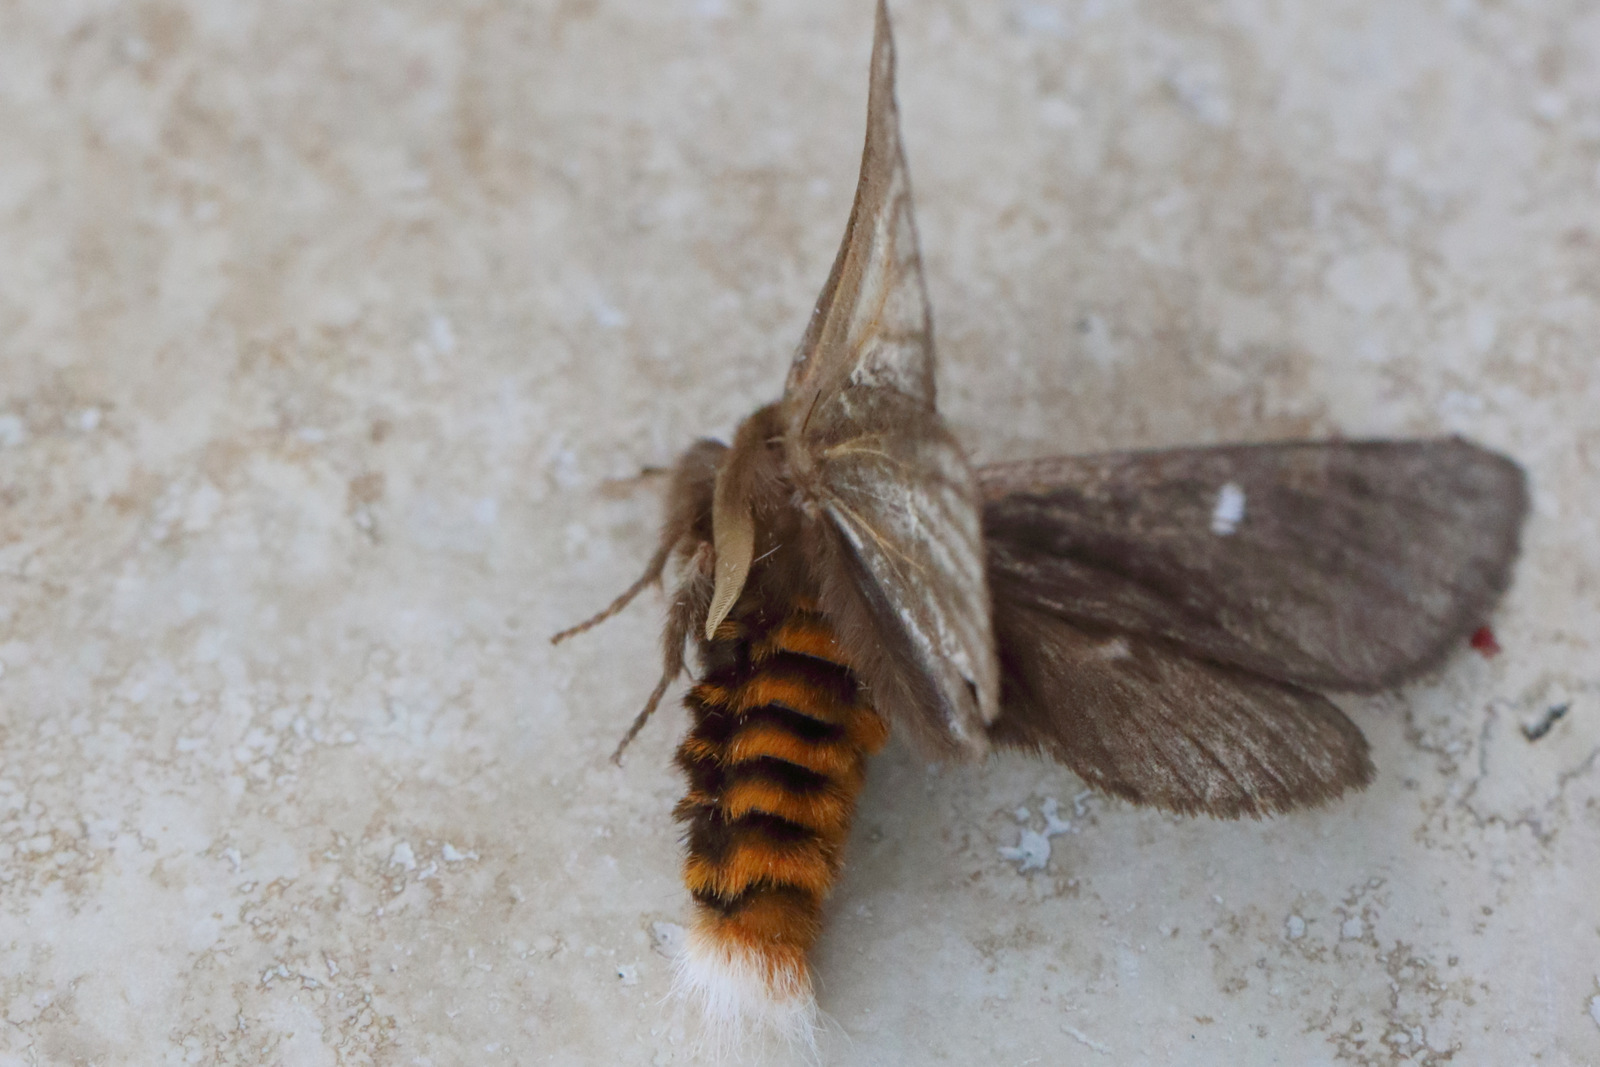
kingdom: Animalia
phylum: Arthropoda
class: Insecta
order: Lepidoptera
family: Notodontidae
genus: Ochrogaster
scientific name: Ochrogaster lunifer
